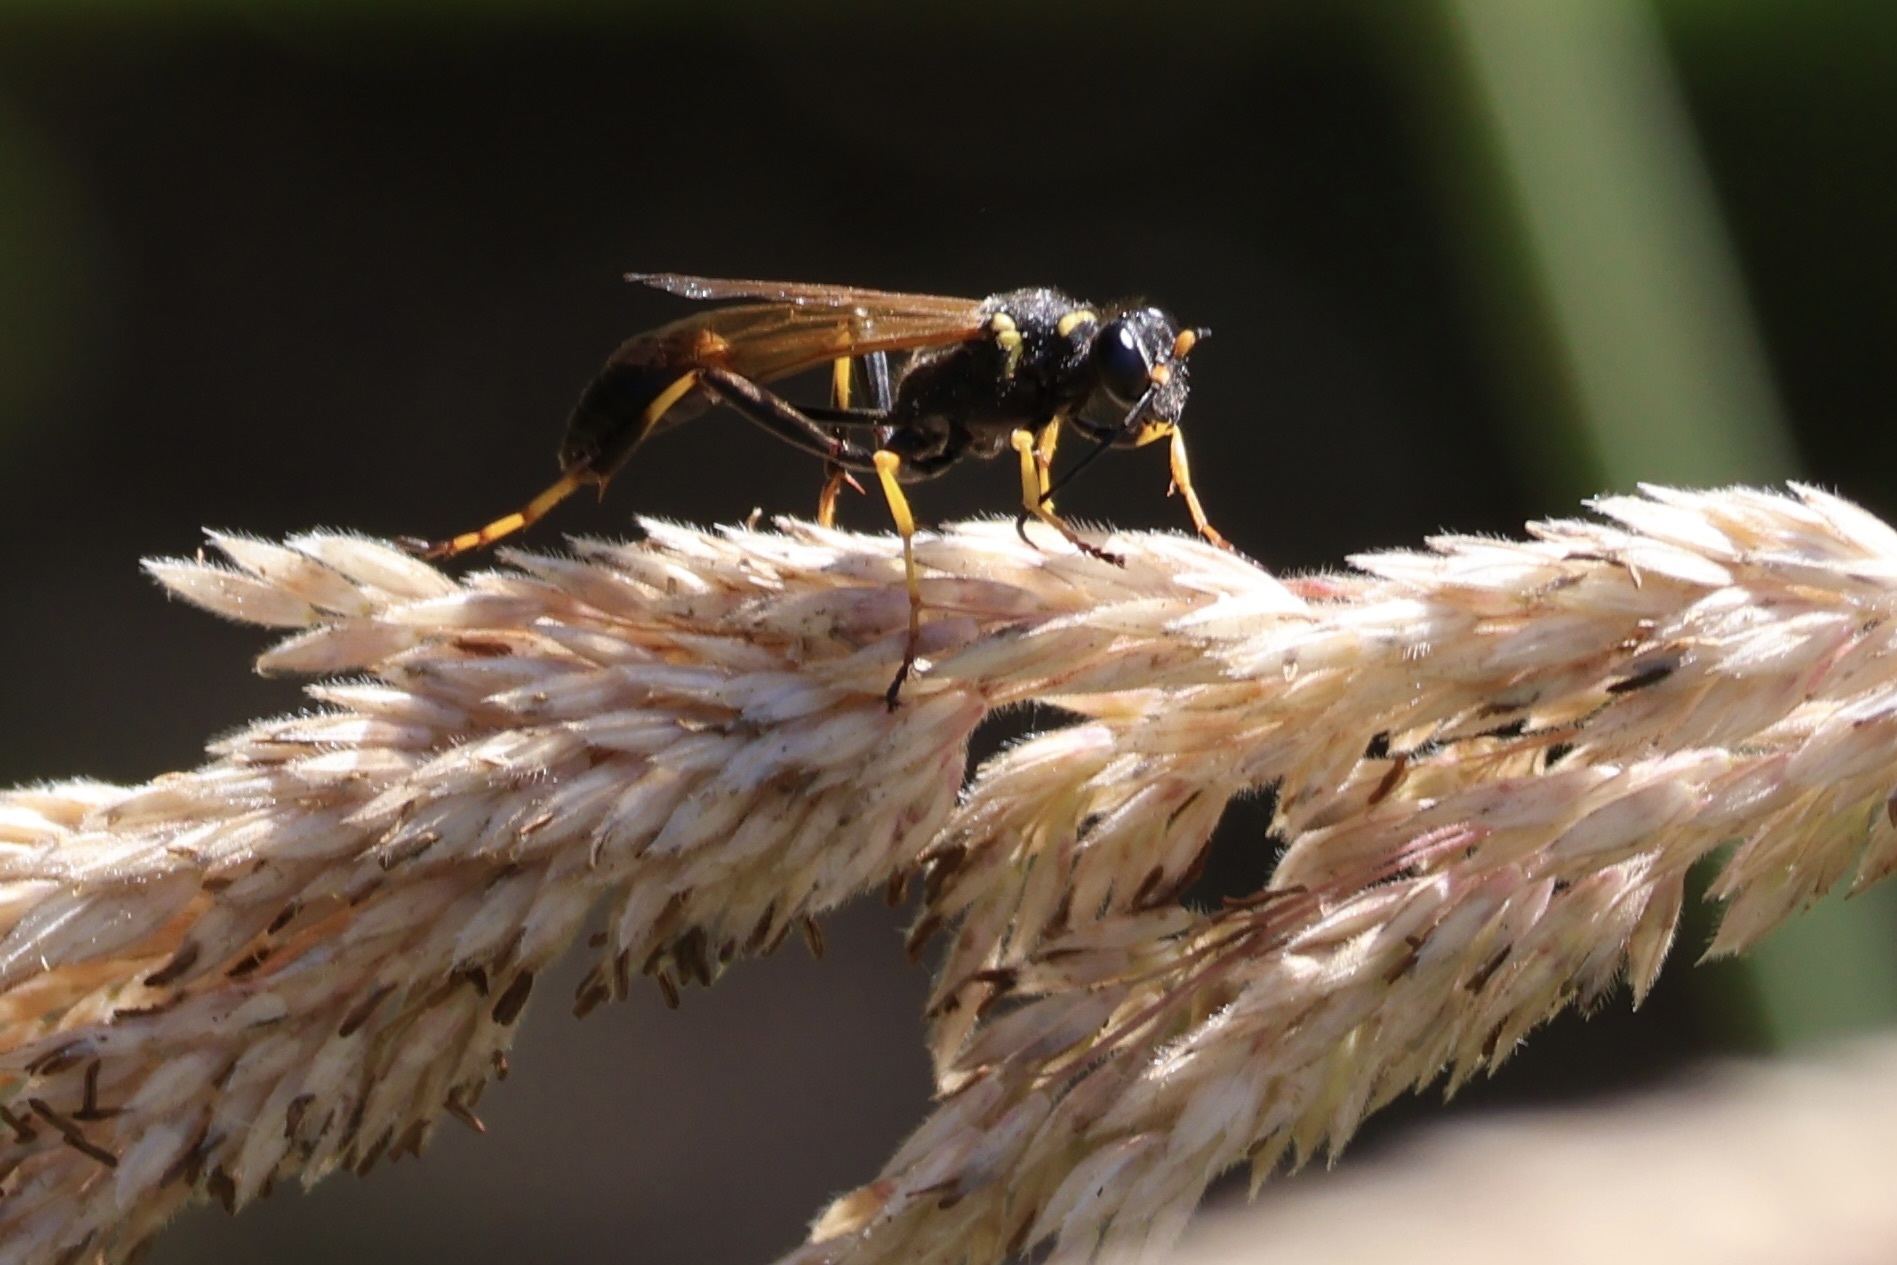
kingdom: Animalia
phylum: Arthropoda
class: Insecta
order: Hymenoptera
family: Sphecidae
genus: Sceliphron
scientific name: Sceliphron caementarium
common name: Mud dauber
